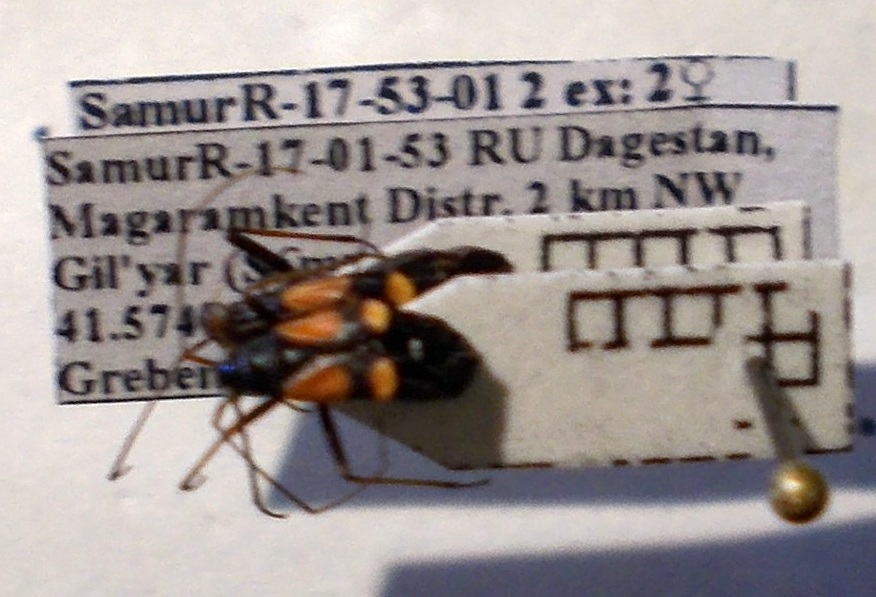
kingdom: Animalia
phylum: Arthropoda
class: Insecta
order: Hemiptera
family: Miridae
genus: Alloeonotus
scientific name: Alloeonotus fulvipes
